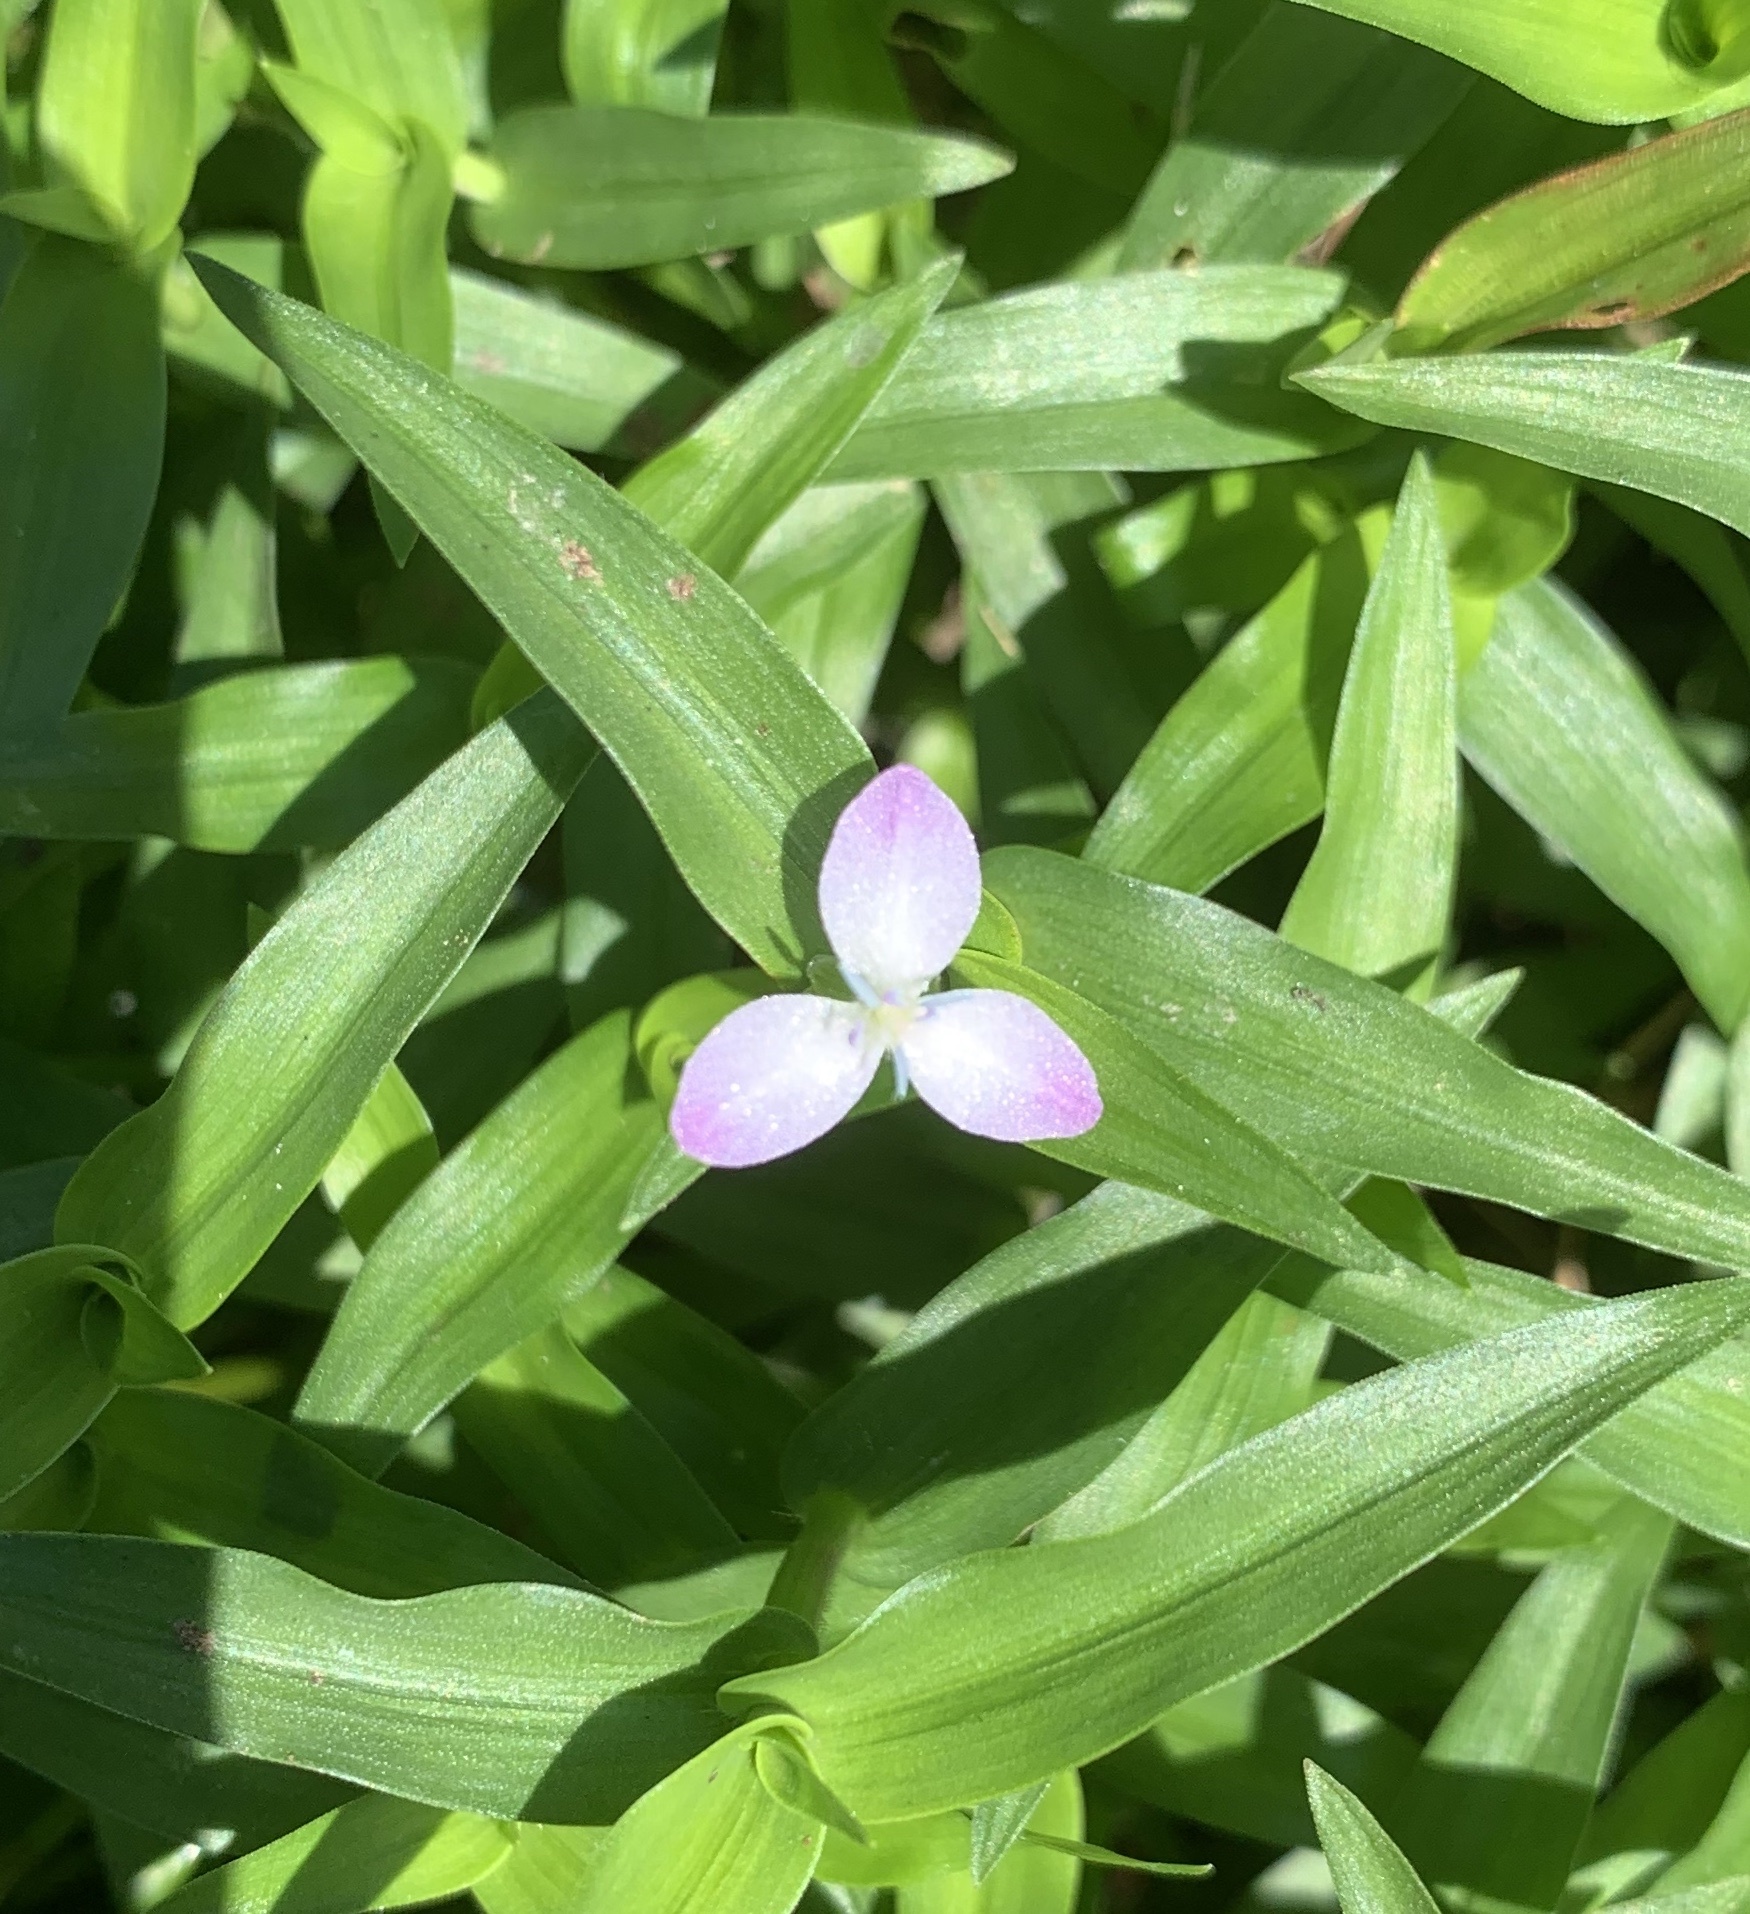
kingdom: Plantae
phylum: Tracheophyta
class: Liliopsida
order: Commelinales
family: Commelinaceae
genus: Murdannia
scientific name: Murdannia keisak
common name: Wartremoving herb
